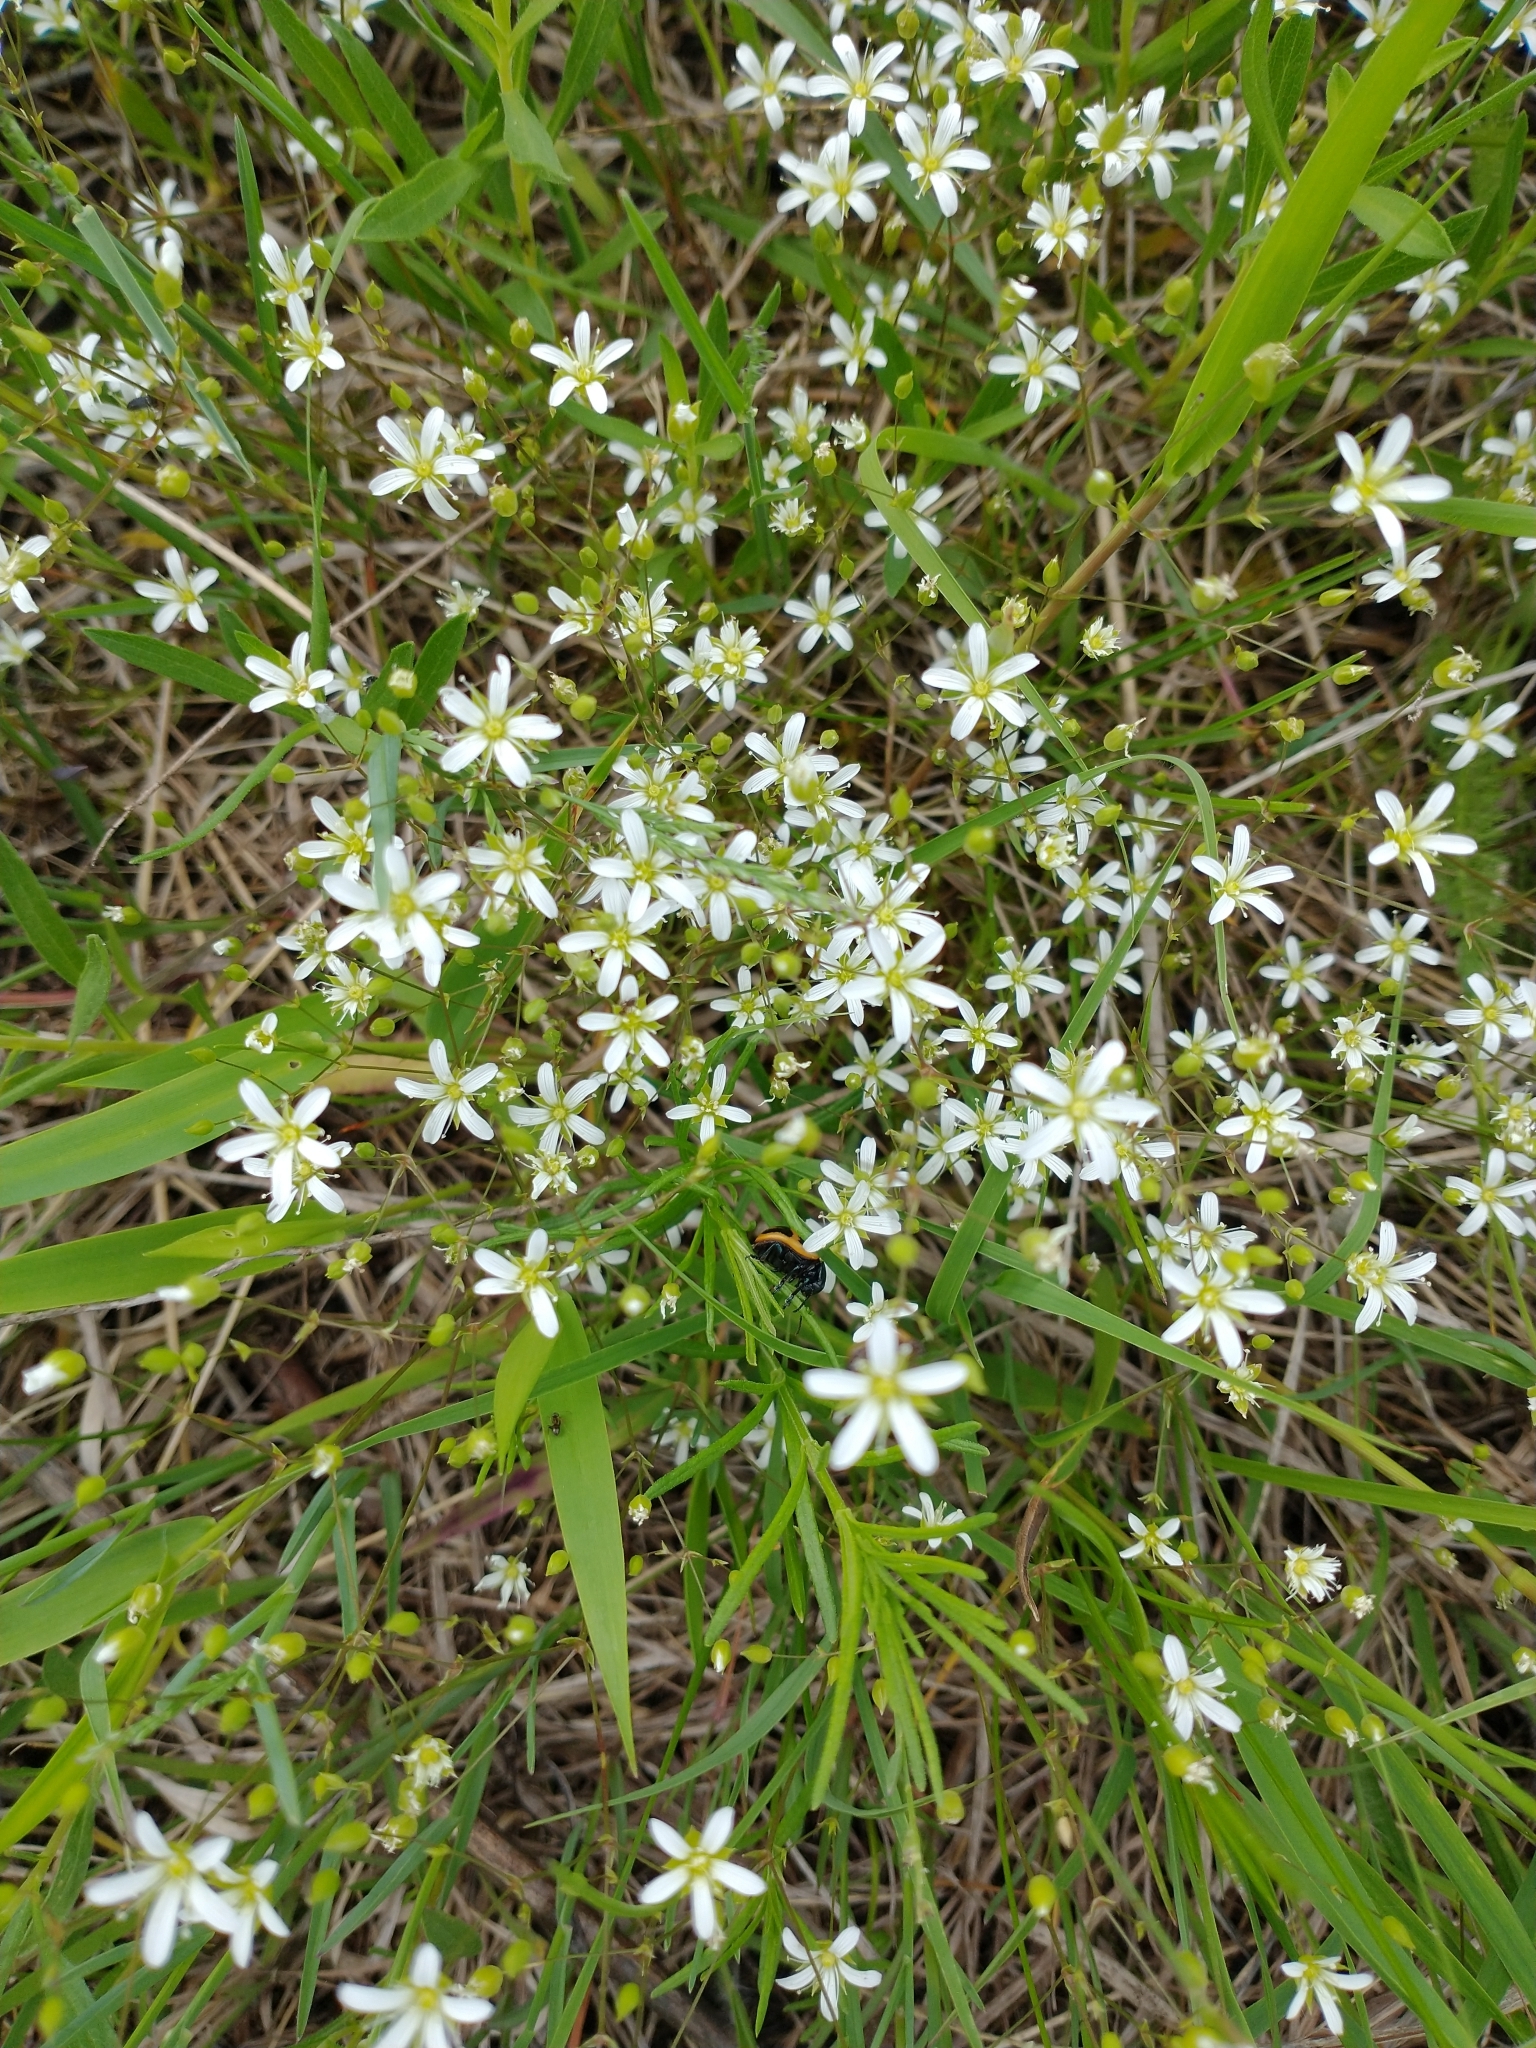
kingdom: Plantae
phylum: Tracheophyta
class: Magnoliopsida
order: Caryophyllales
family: Caryophyllaceae
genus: Sabulina
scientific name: Sabulina michauxii
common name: Michaux's stitchwort
